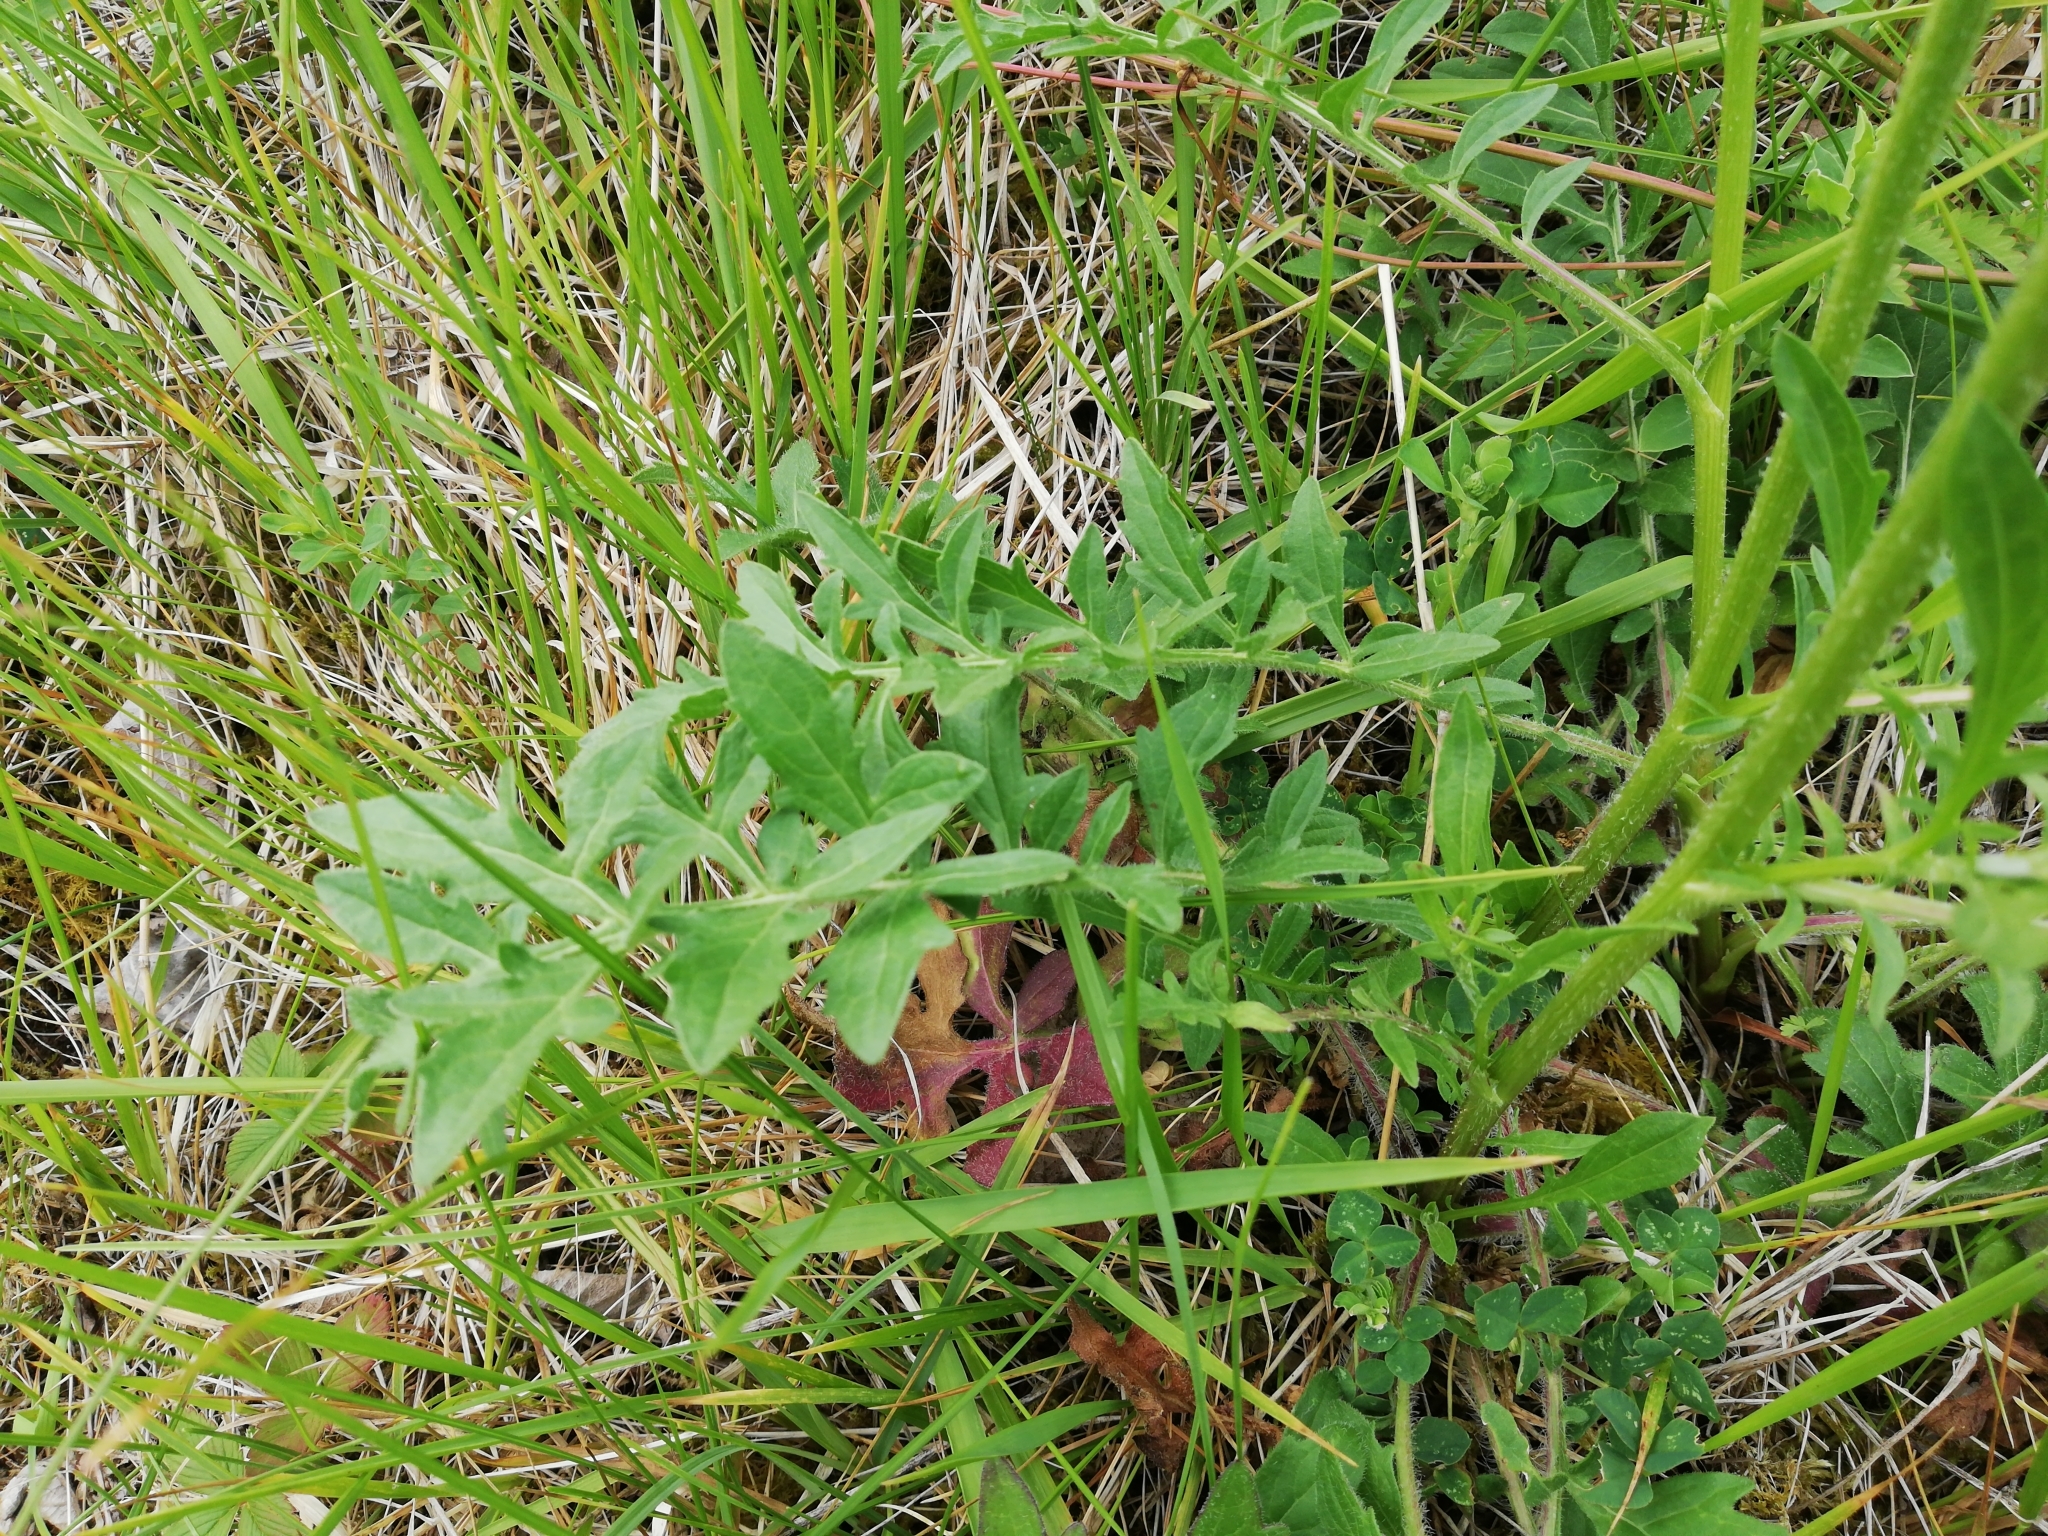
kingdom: Plantae
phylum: Tracheophyta
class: Magnoliopsida
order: Asterales
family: Asteraceae
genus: Centaurea
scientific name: Centaurea scabiosa
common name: Greater knapweed
